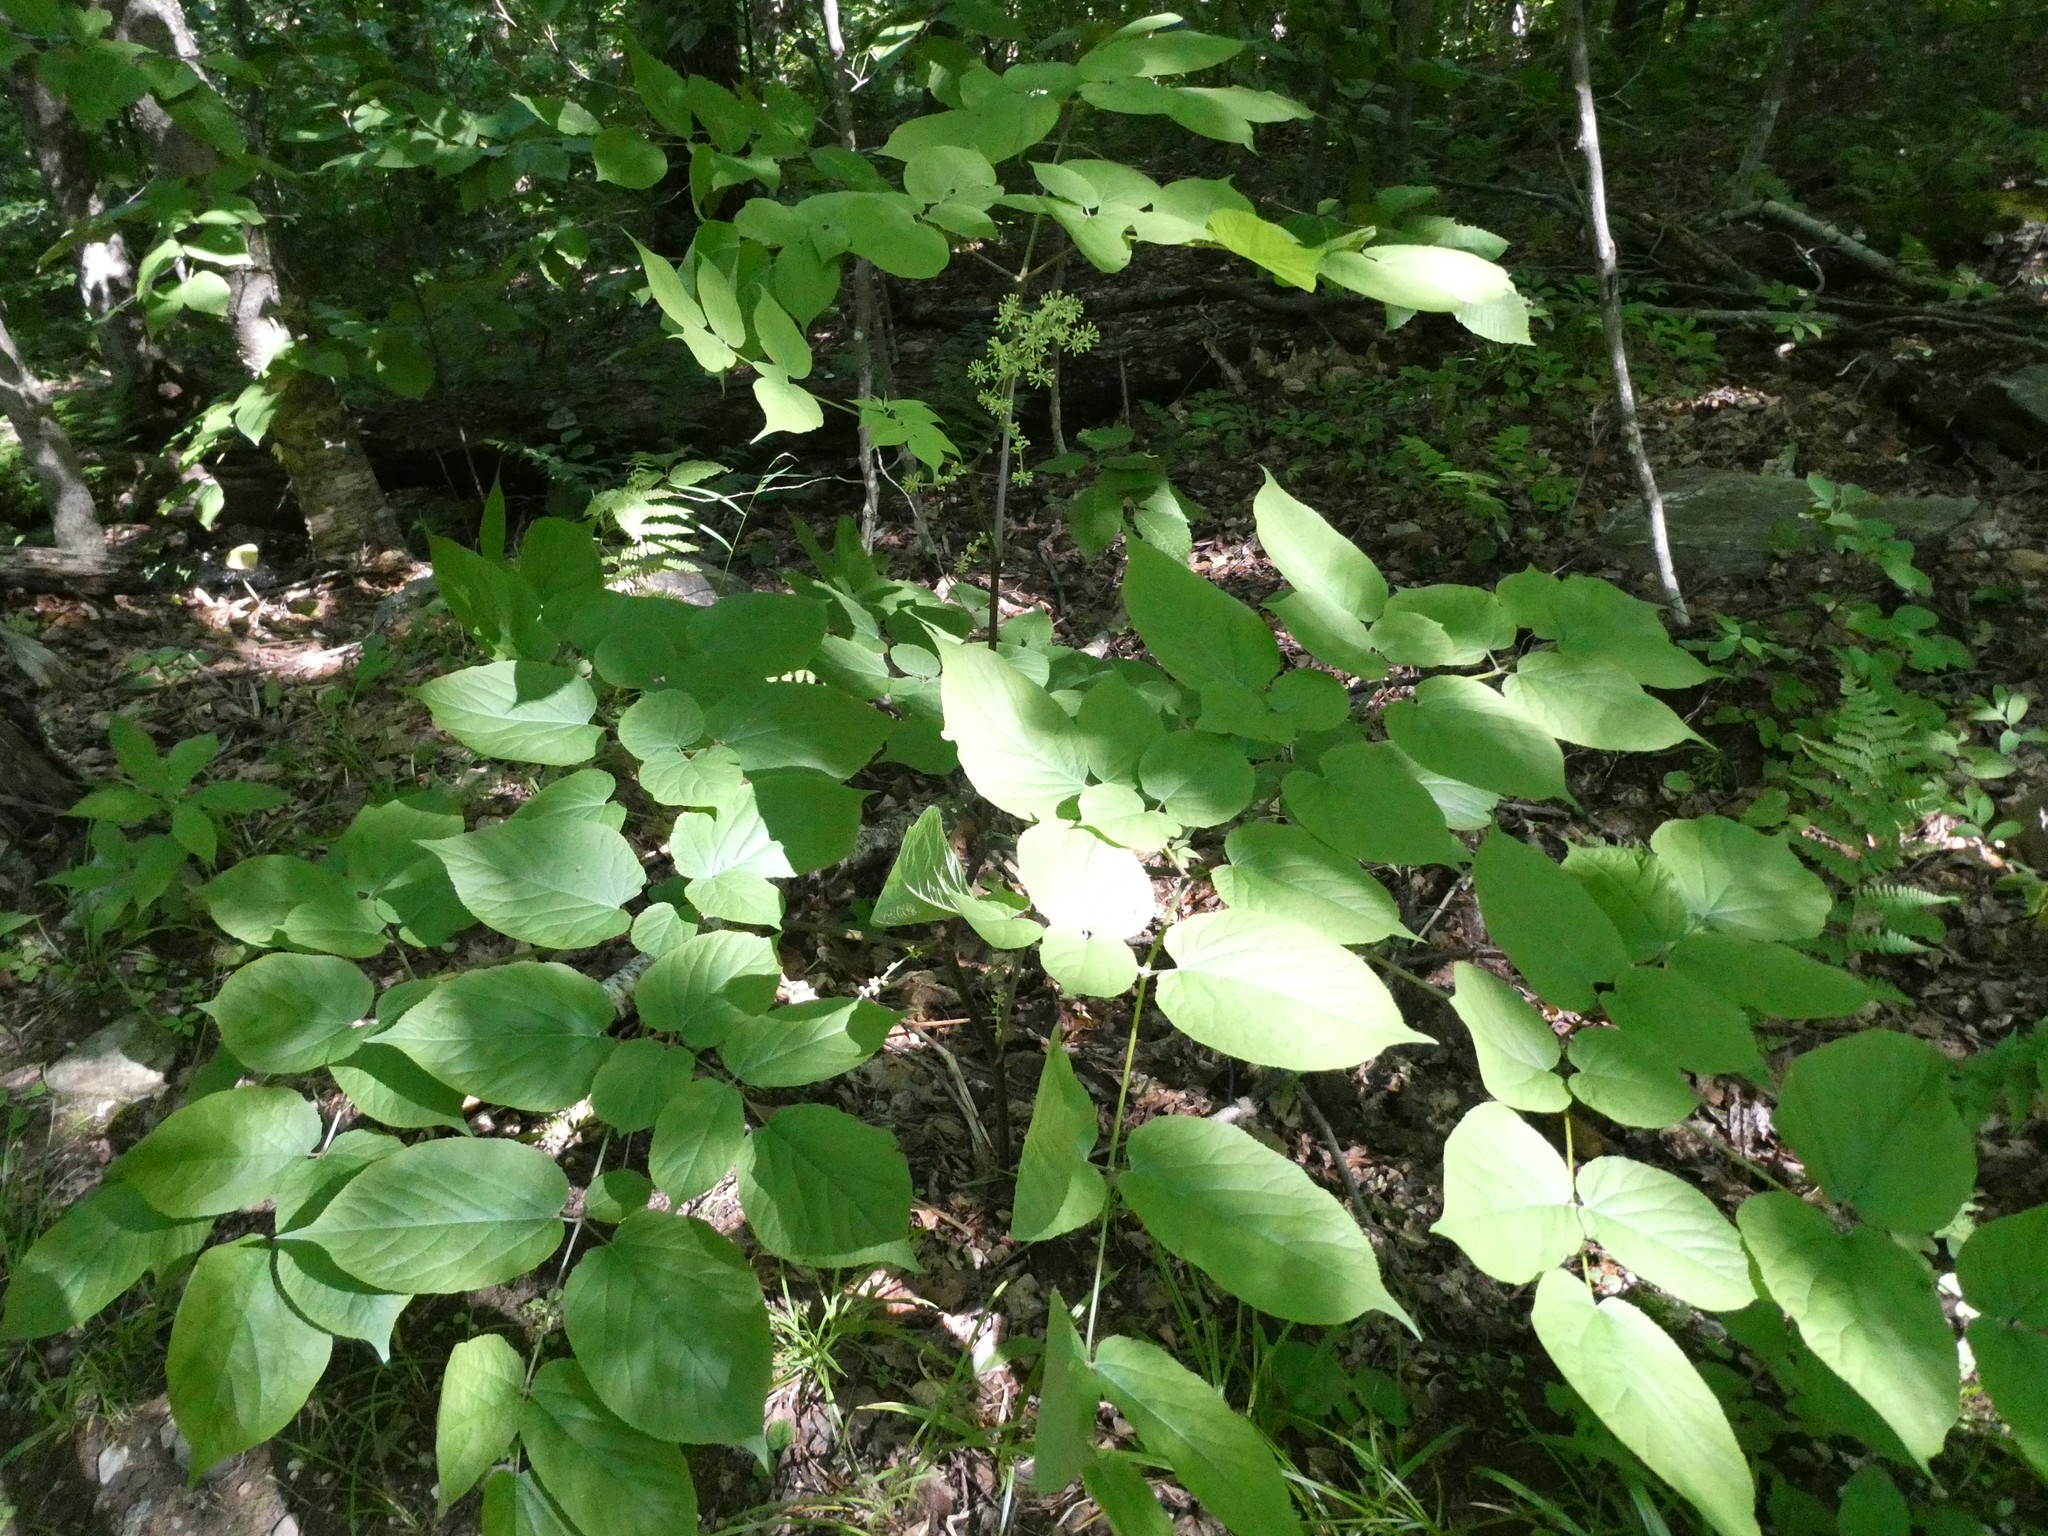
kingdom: Plantae
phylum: Tracheophyta
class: Magnoliopsida
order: Apiales
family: Araliaceae
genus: Aralia
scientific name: Aralia racemosa
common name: American-spikenard
